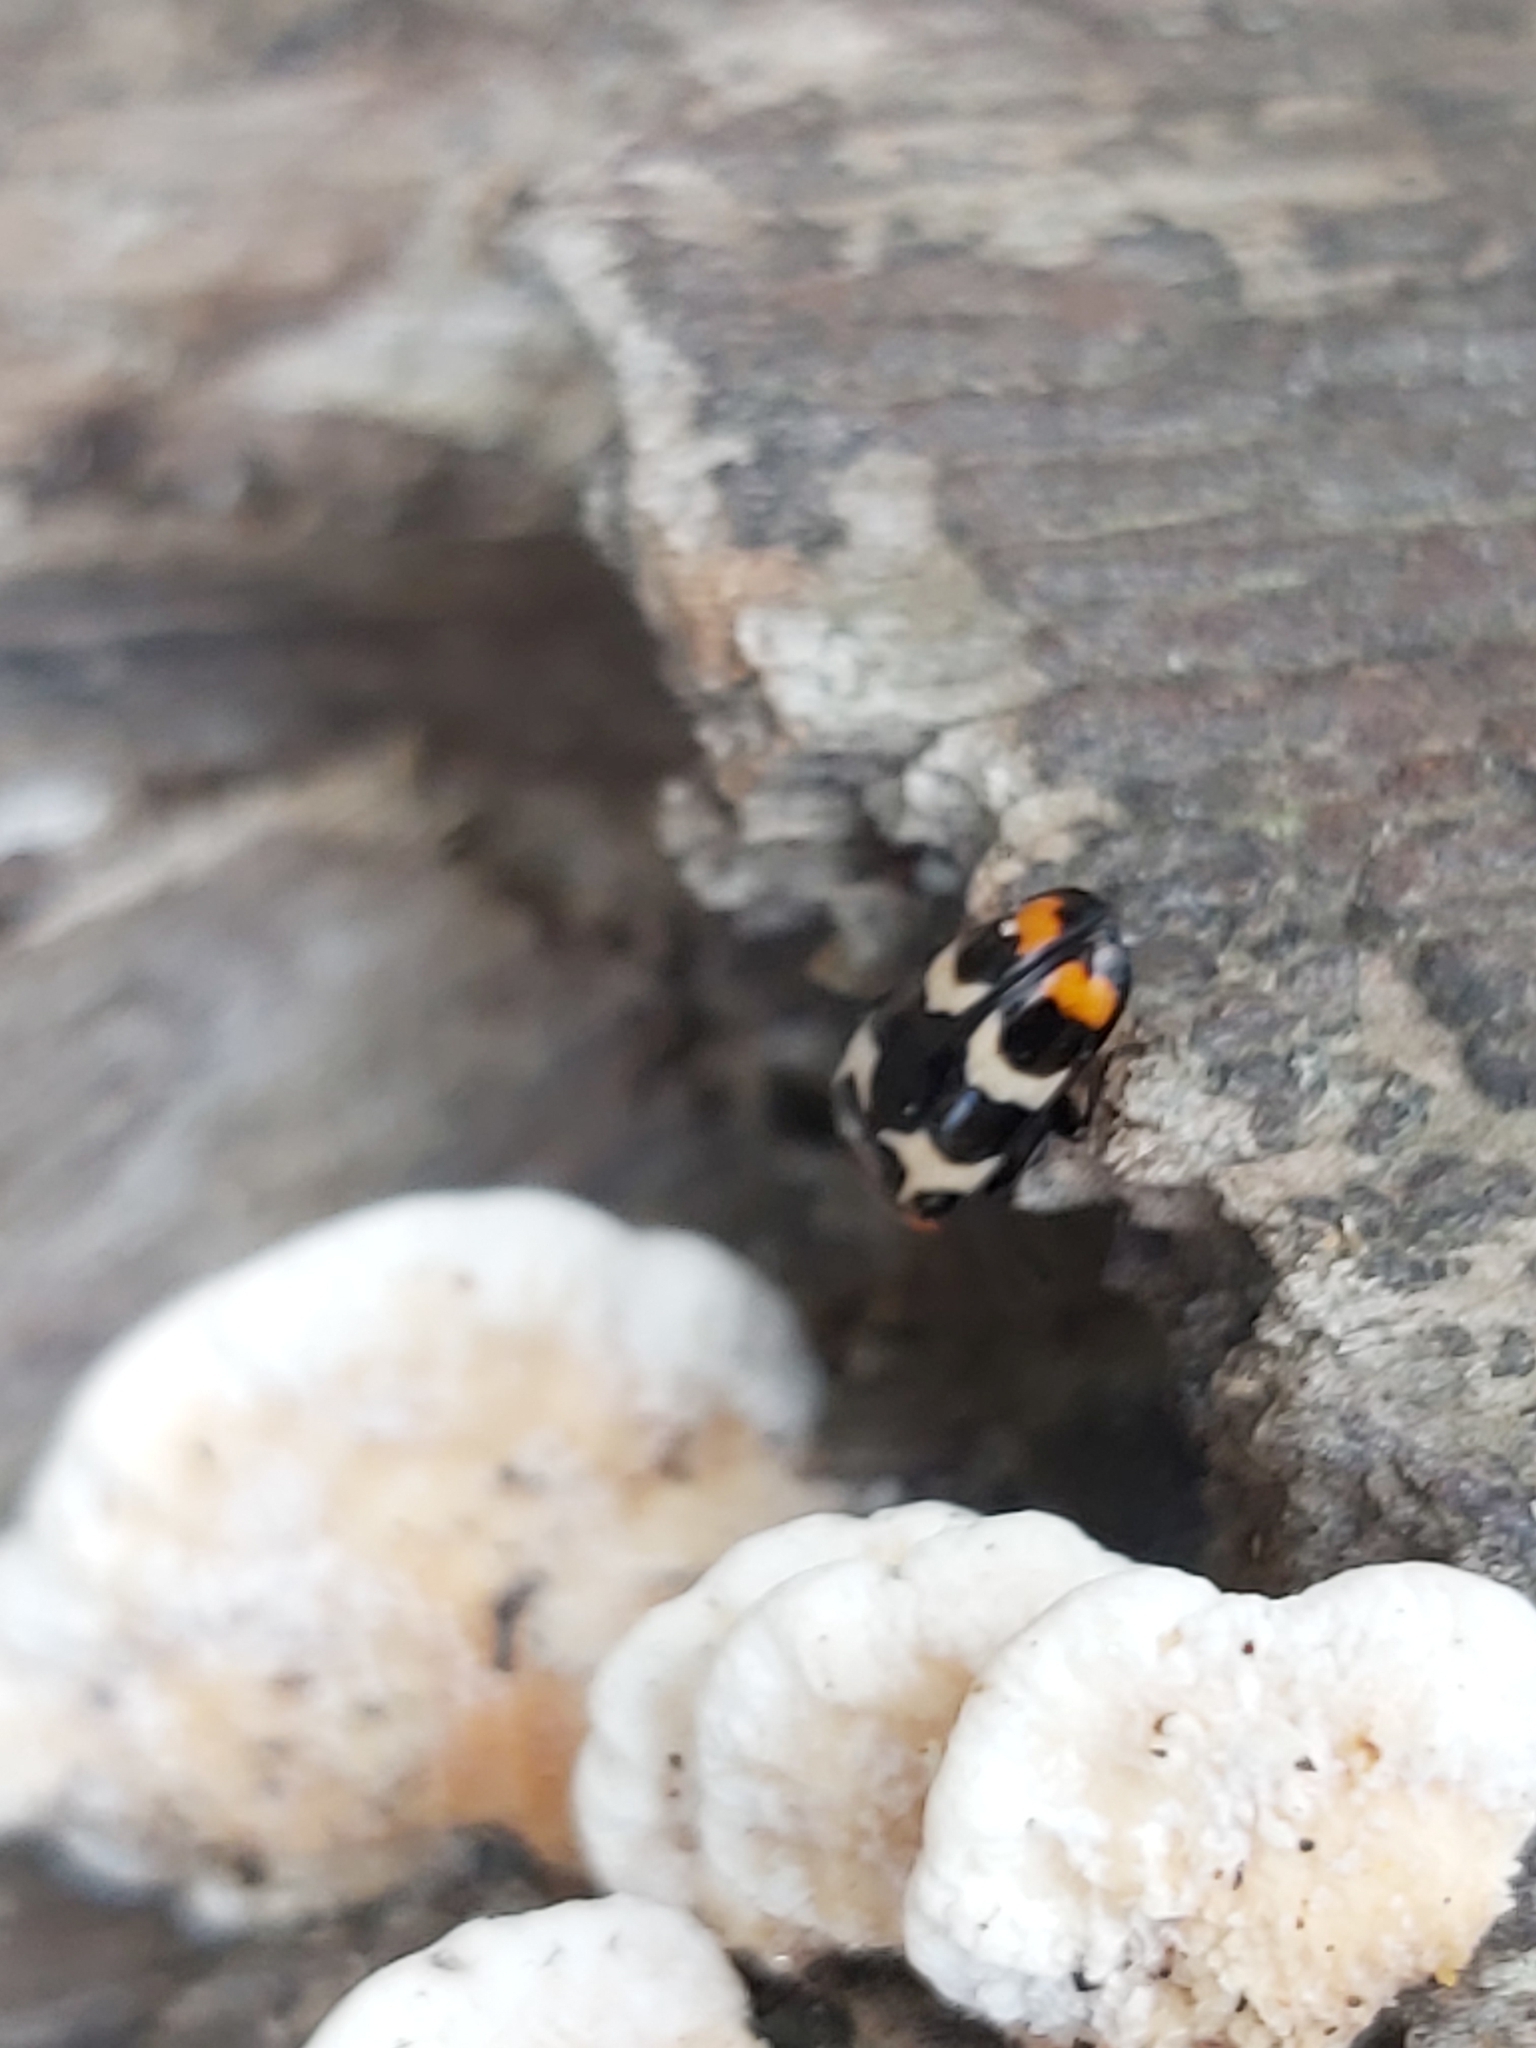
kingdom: Animalia
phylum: Arthropoda
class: Insecta
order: Coleoptera
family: Erotylidae
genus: Episcaphula
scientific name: Episcaphula
